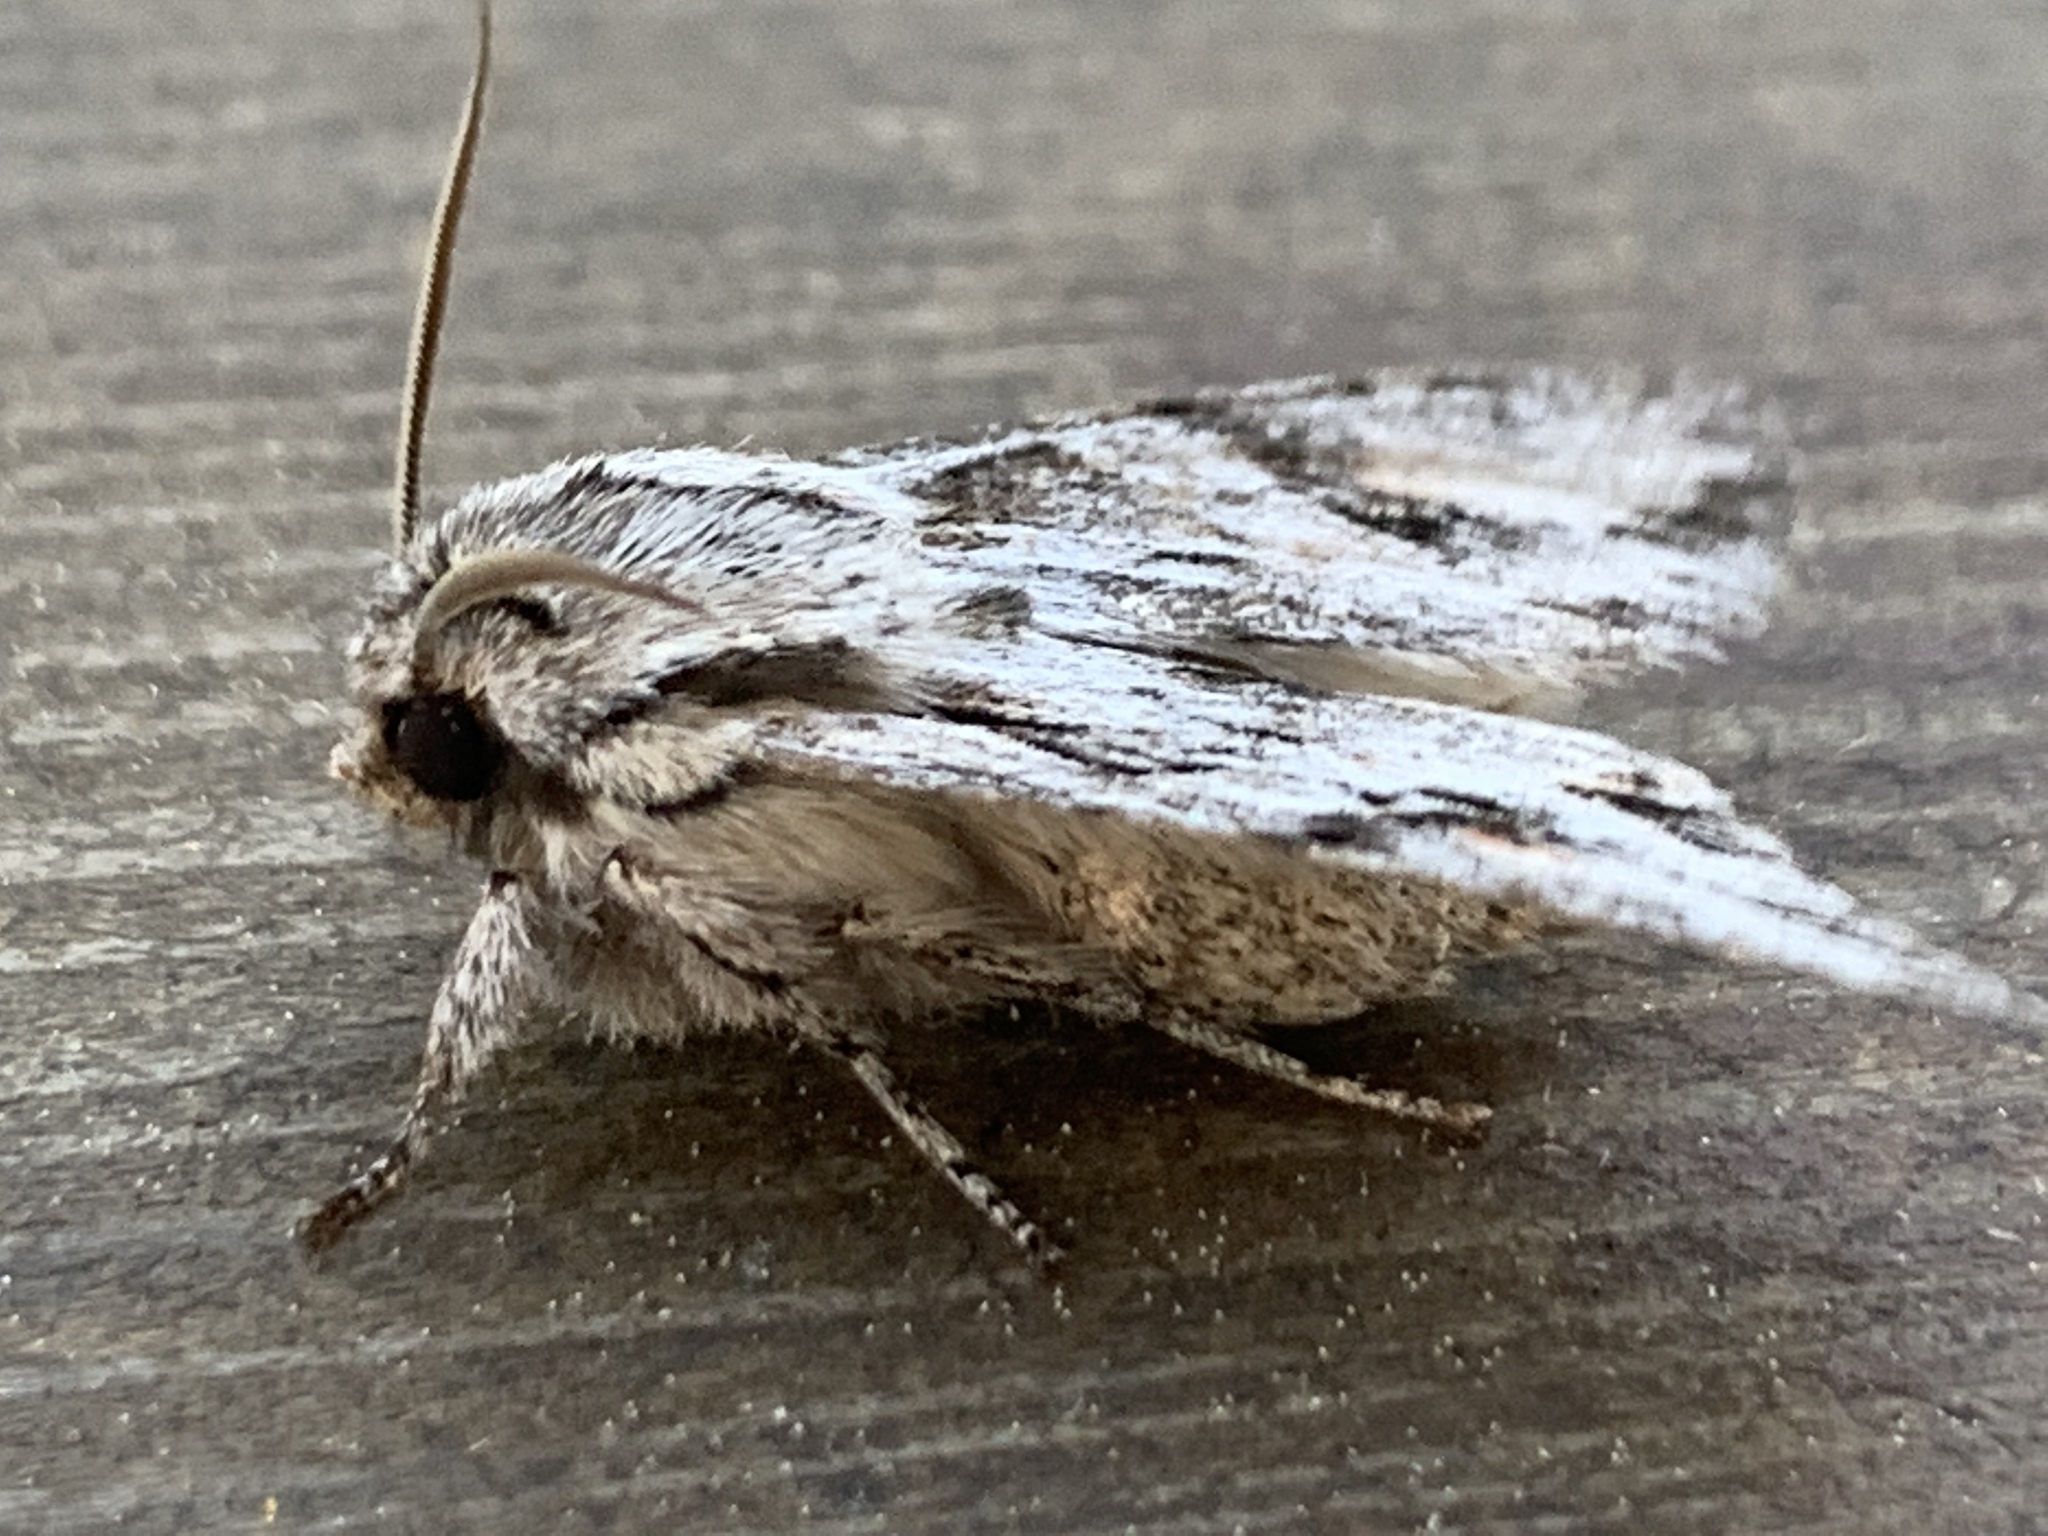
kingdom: Animalia
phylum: Arthropoda
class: Insecta
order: Lepidoptera
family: Noctuidae
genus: Egira
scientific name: Egira crucialis
